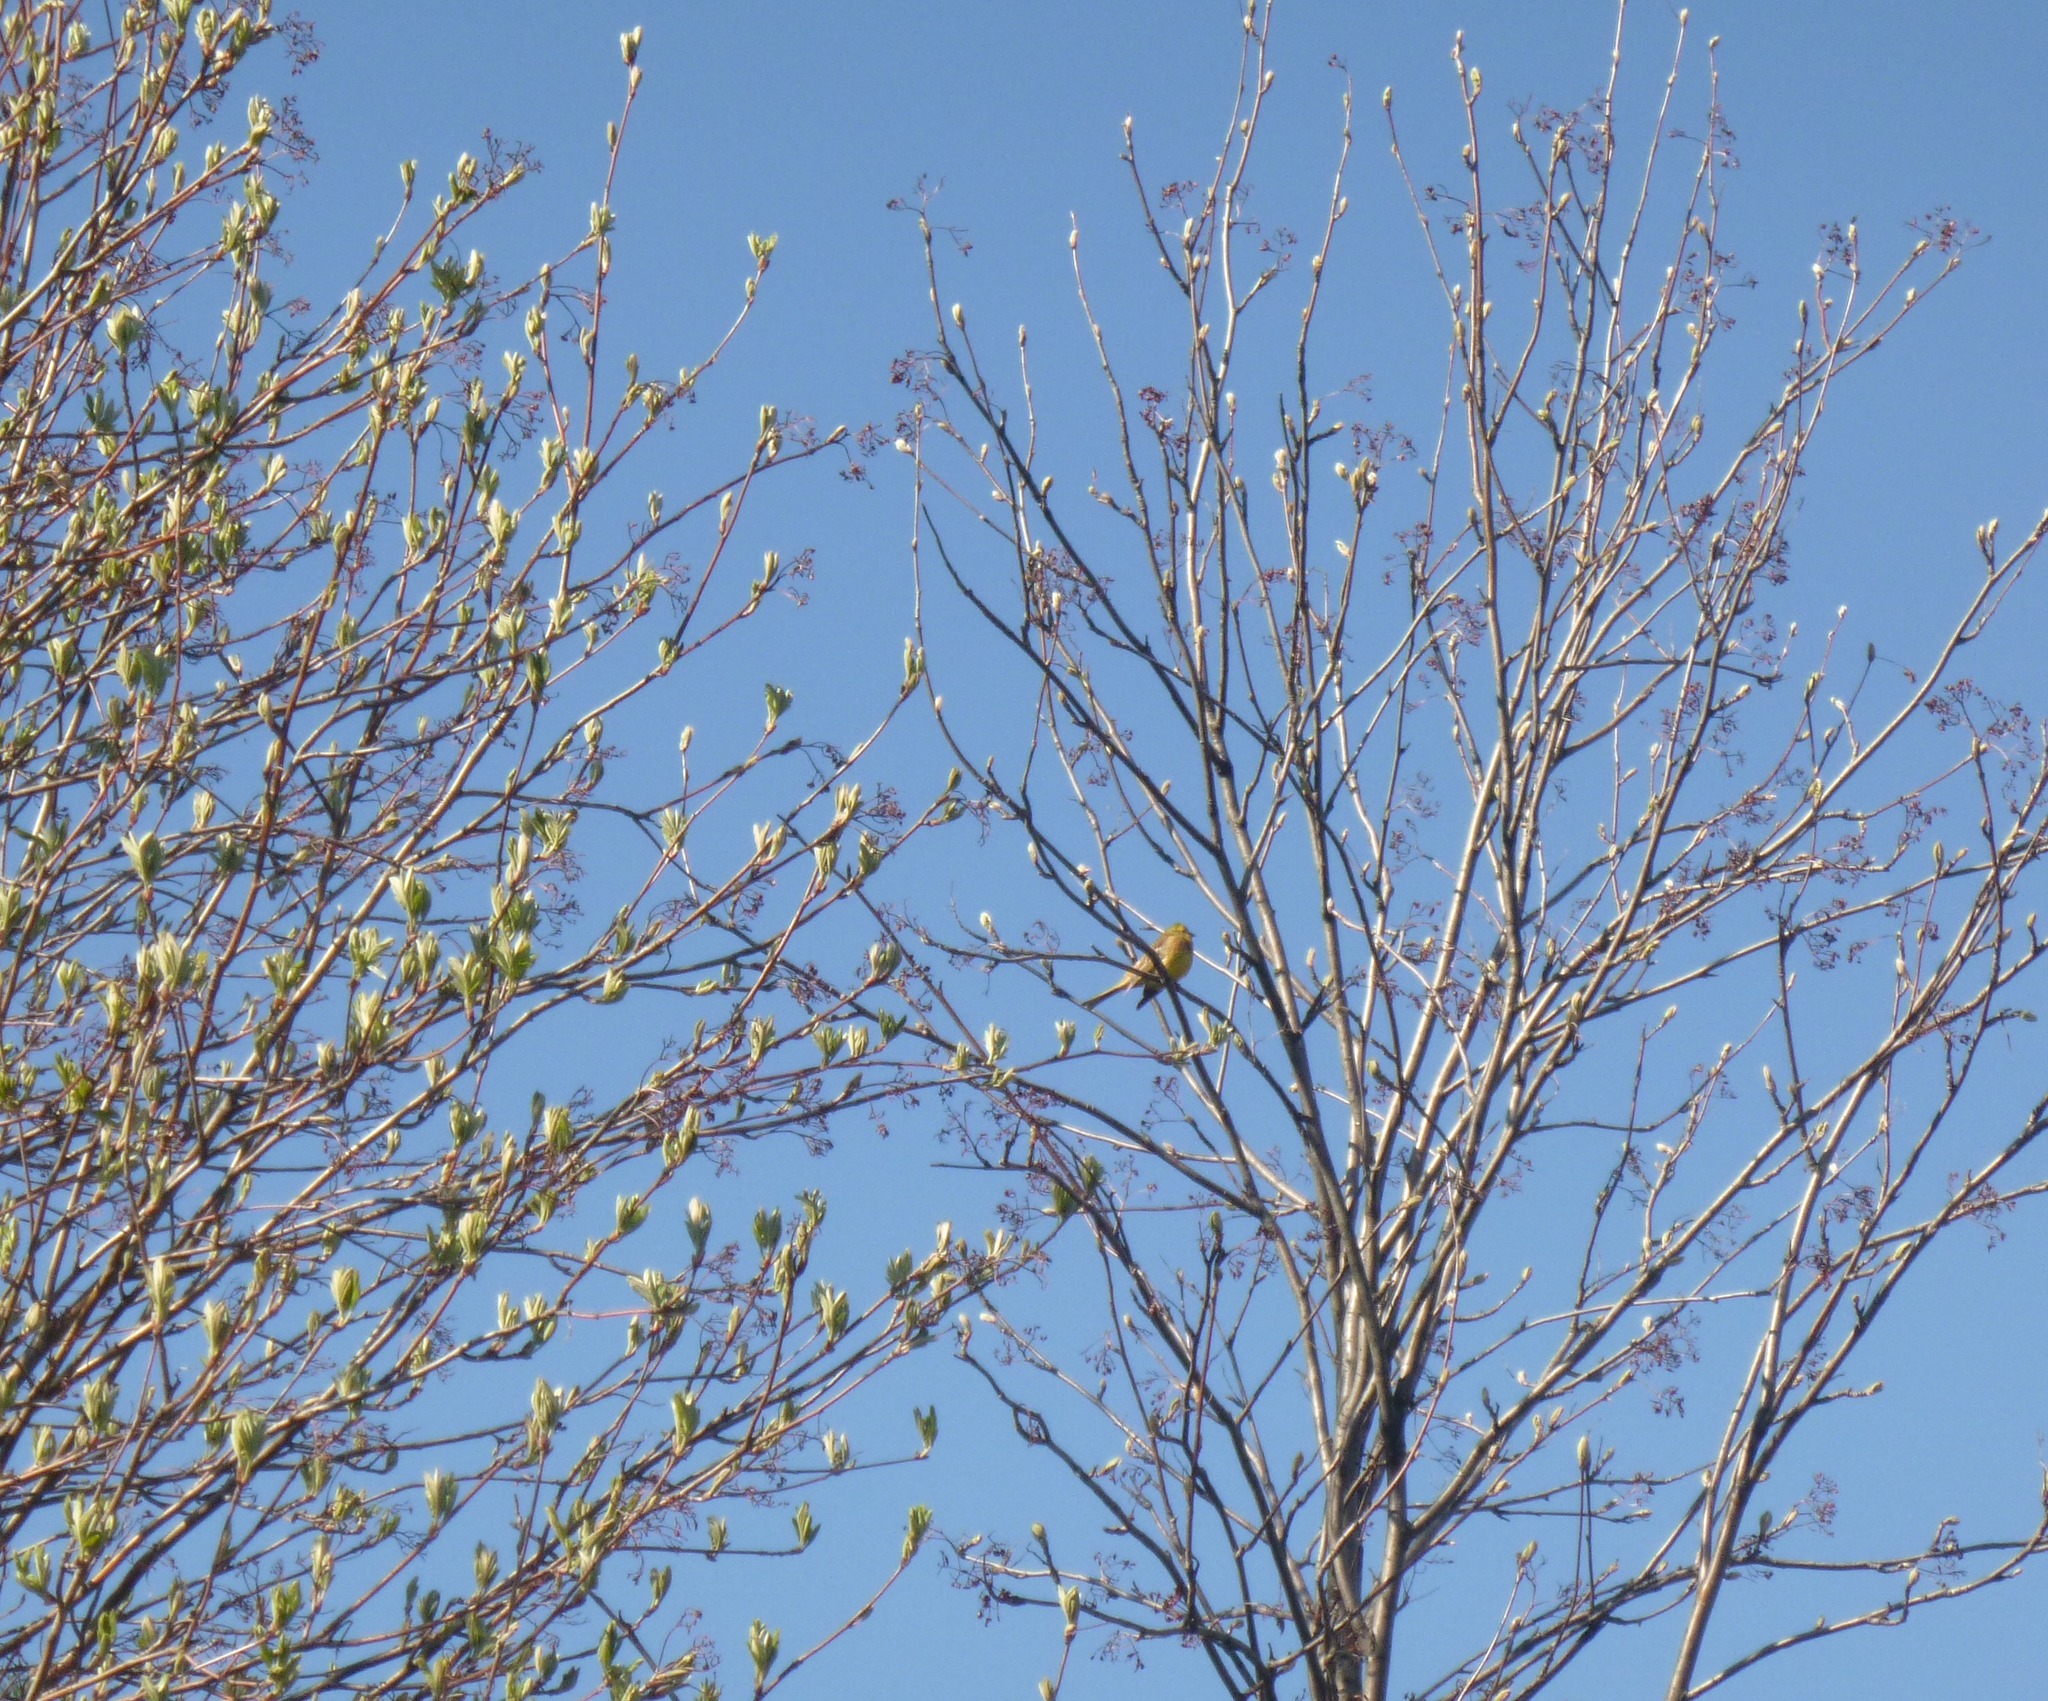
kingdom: Animalia
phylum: Chordata
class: Aves
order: Passeriformes
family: Emberizidae
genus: Emberiza
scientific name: Emberiza citrinella
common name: Yellowhammer
